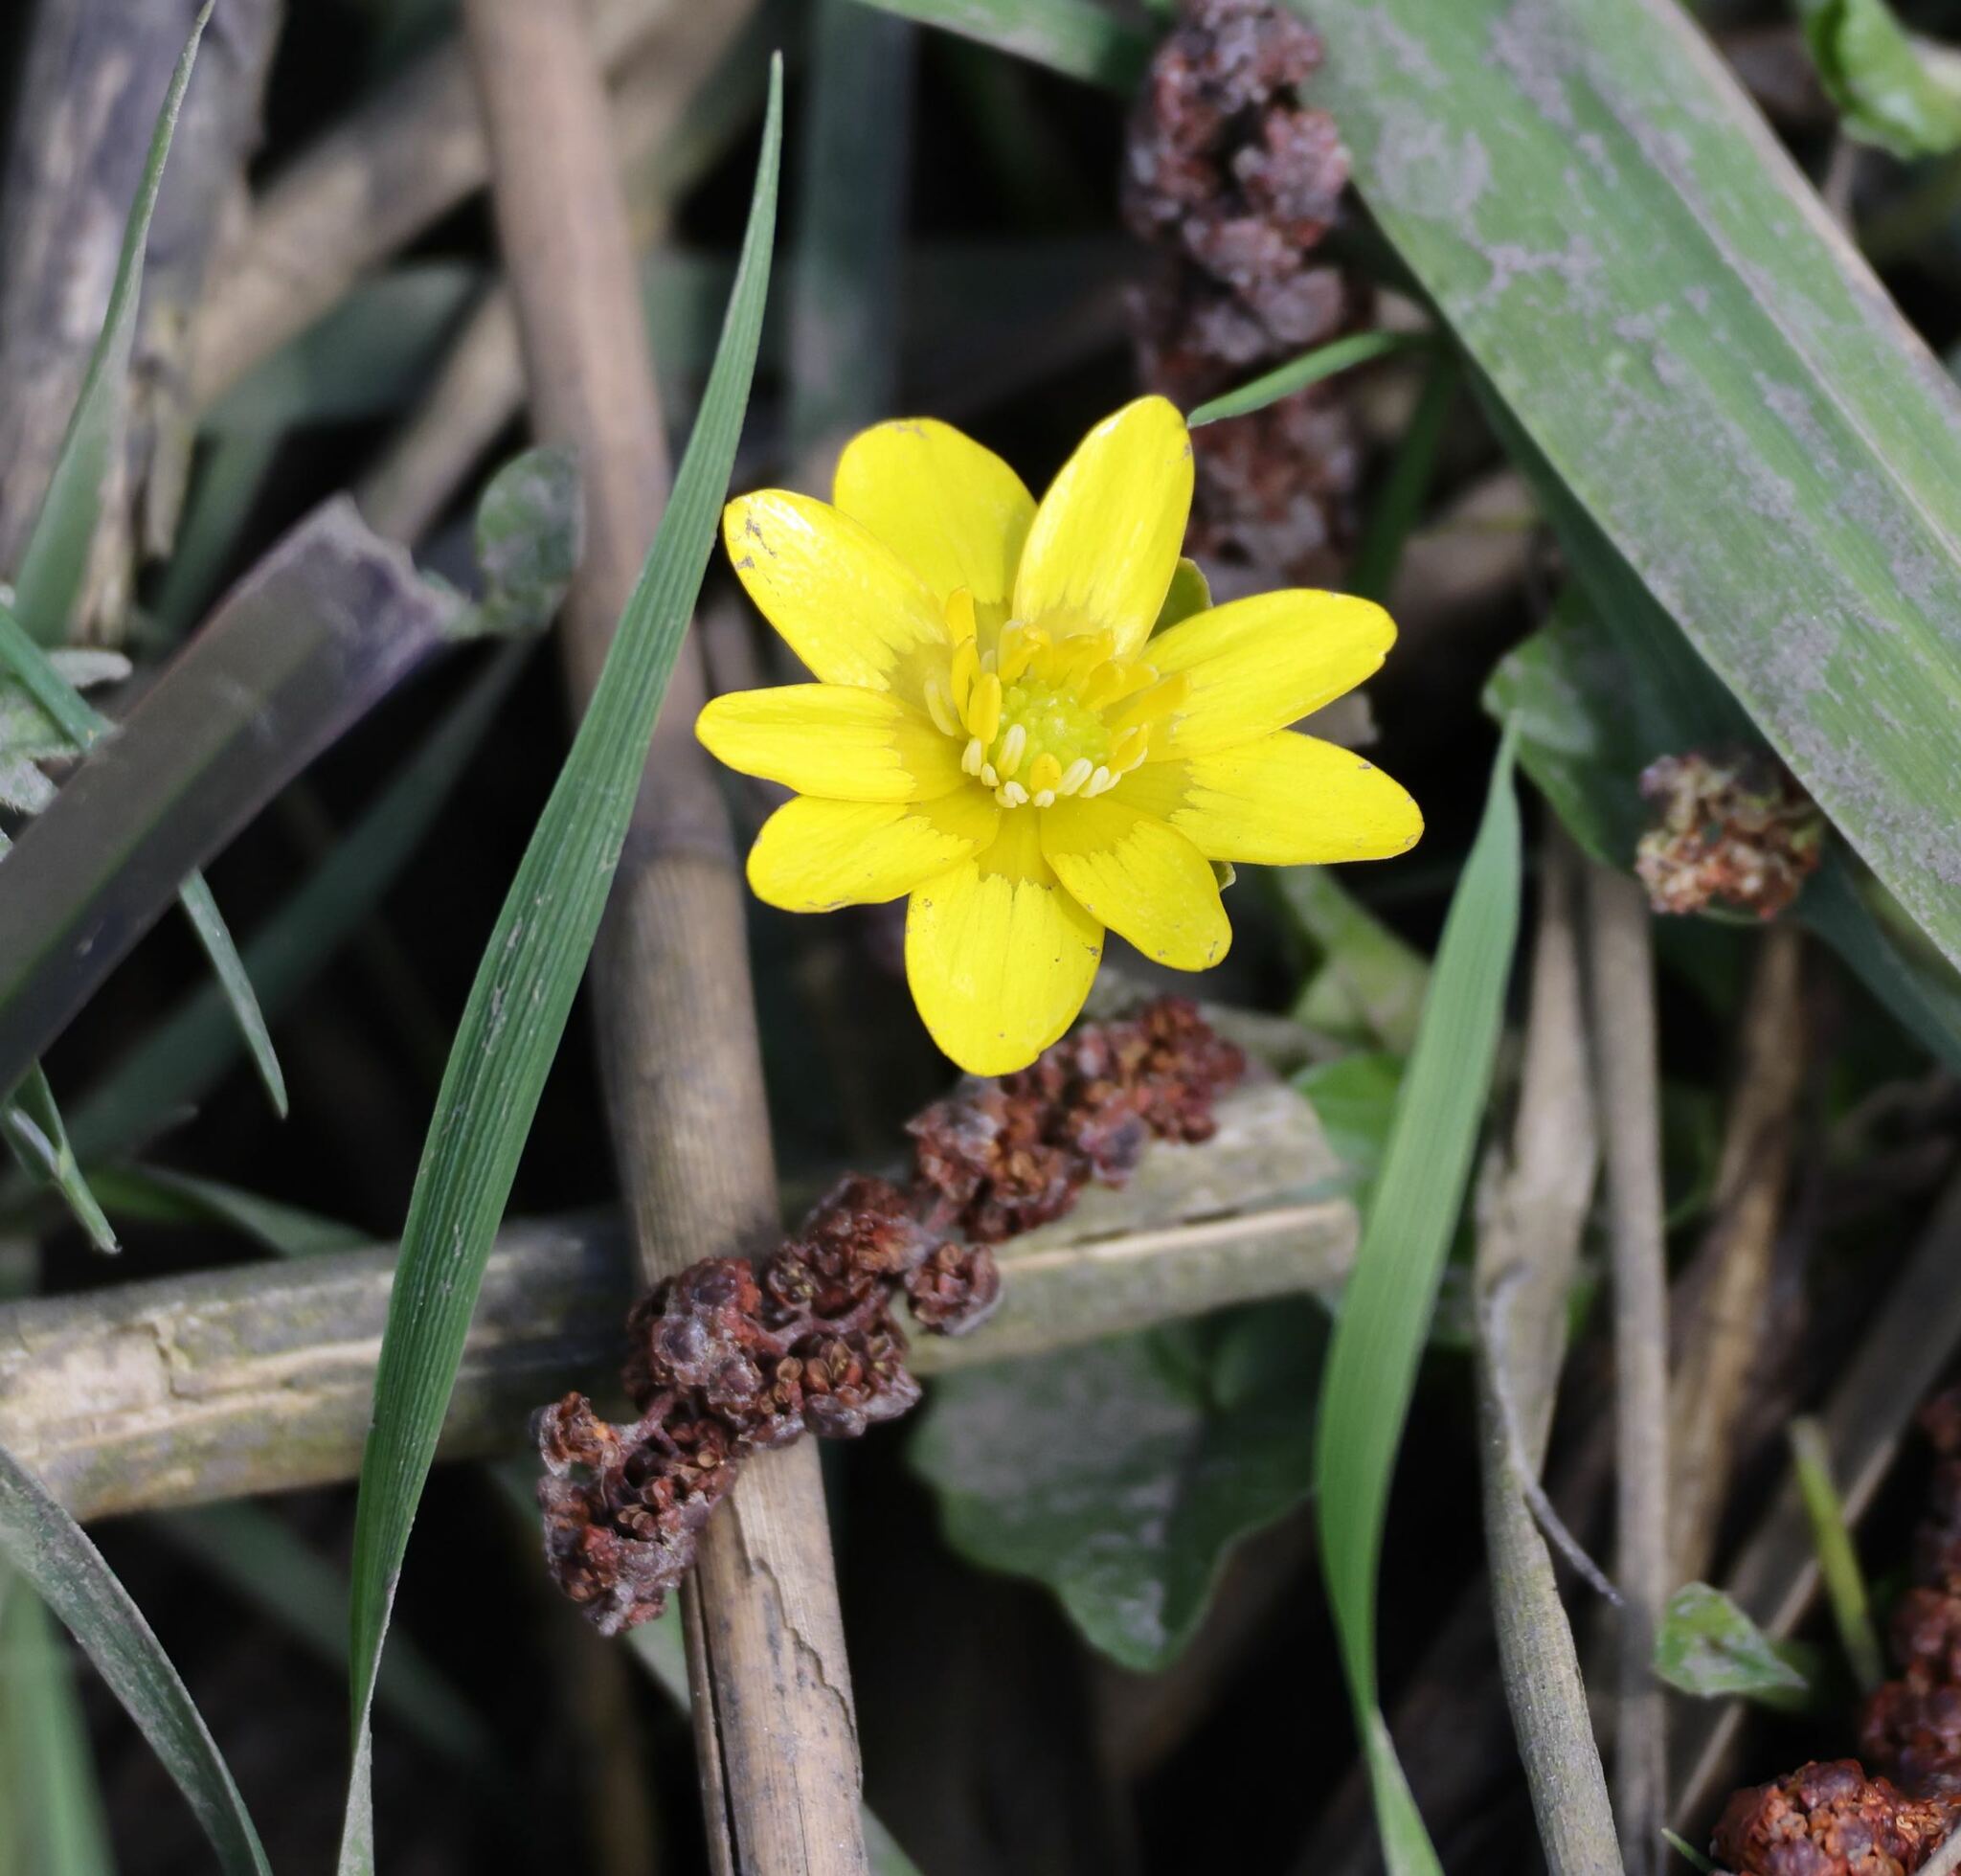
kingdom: Plantae
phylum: Tracheophyta
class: Magnoliopsida
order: Ranunculales
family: Ranunculaceae
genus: Ficaria
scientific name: Ficaria verna
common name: Lesser celandine
